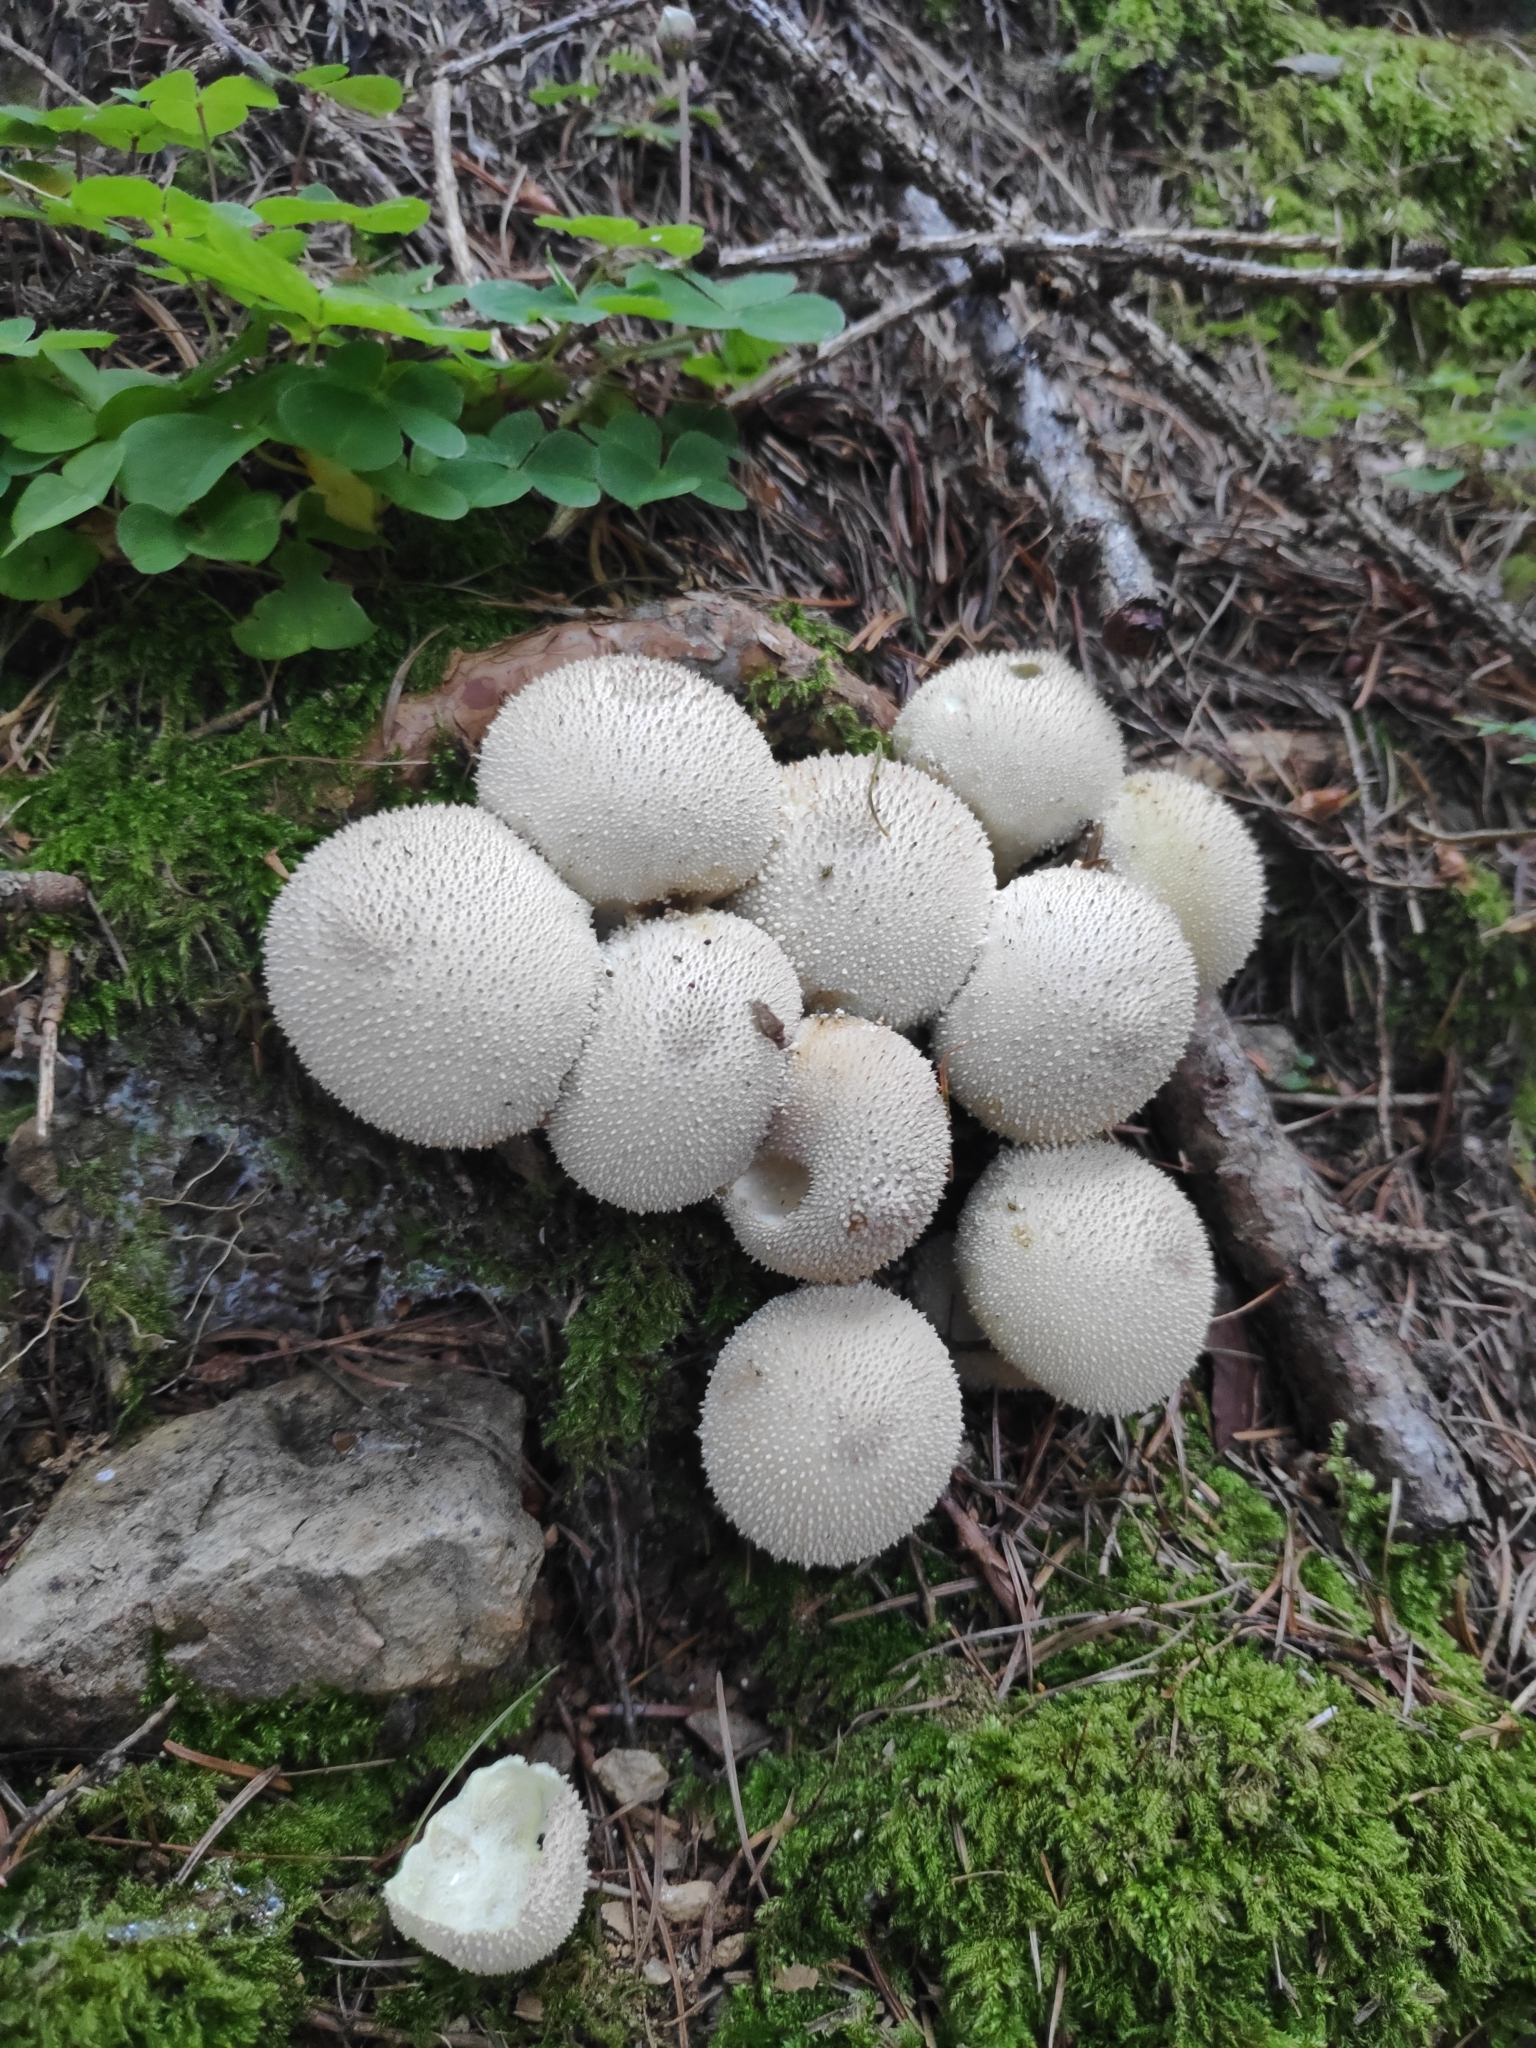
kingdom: Fungi
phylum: Basidiomycota
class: Agaricomycetes
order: Agaricales
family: Lycoperdaceae
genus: Lycoperdon
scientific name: Lycoperdon perlatum
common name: Common puffball
